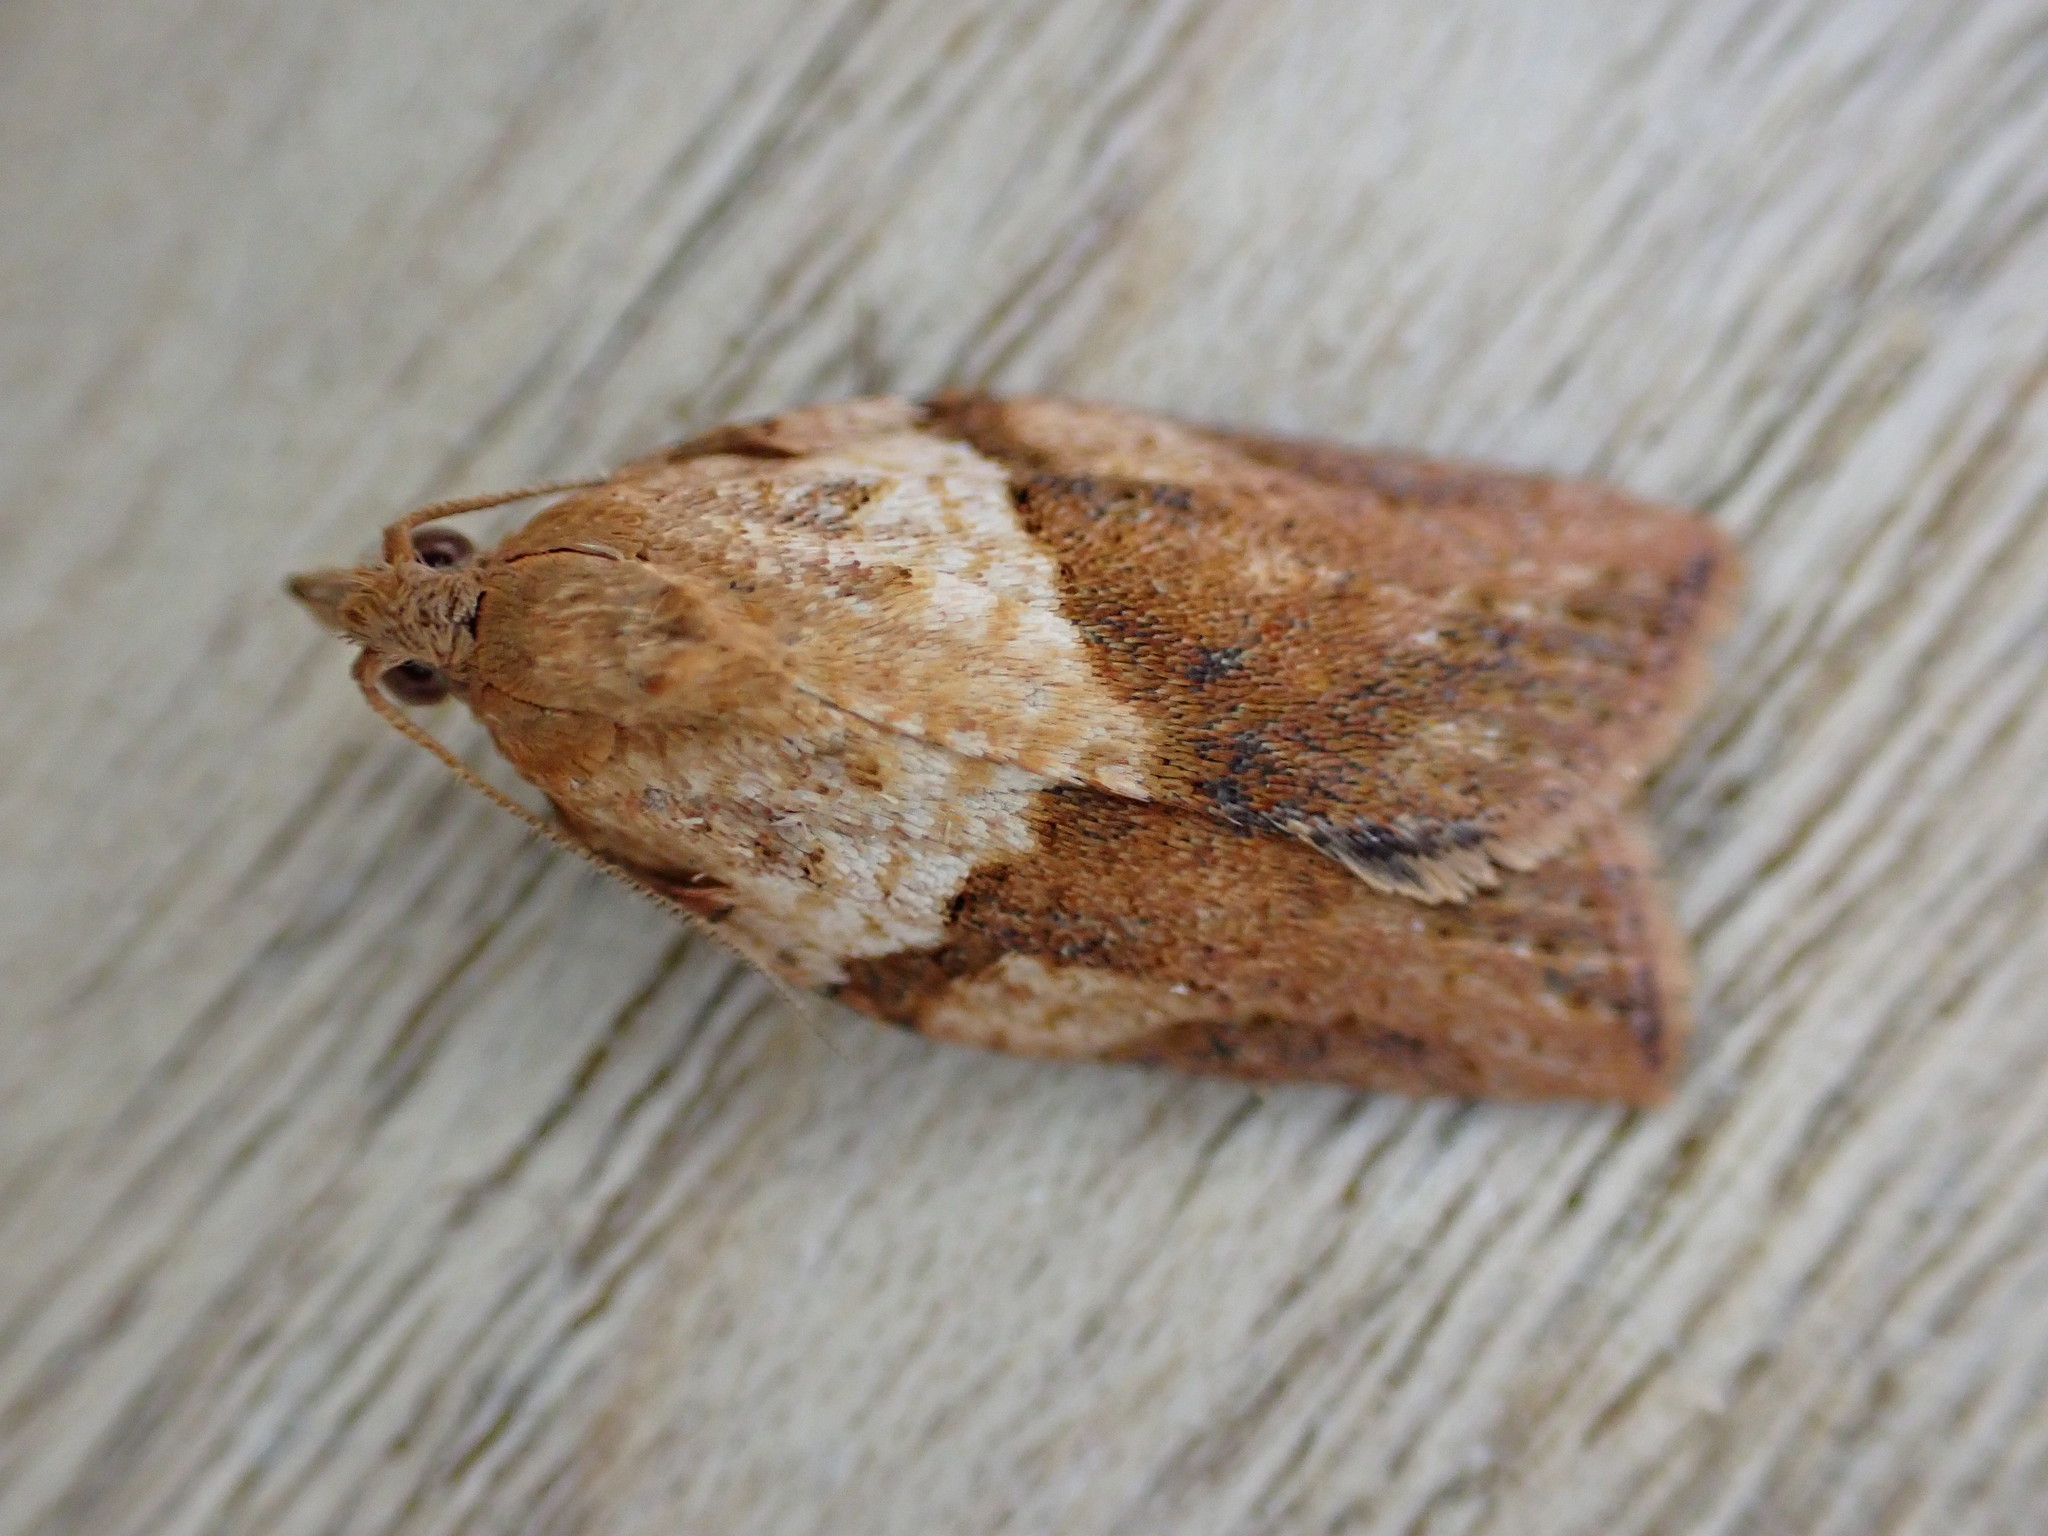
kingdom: Animalia
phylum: Arthropoda
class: Insecta
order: Lepidoptera
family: Tortricidae
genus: Epiphyas
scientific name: Epiphyas postvittana
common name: Light brown apple moth
